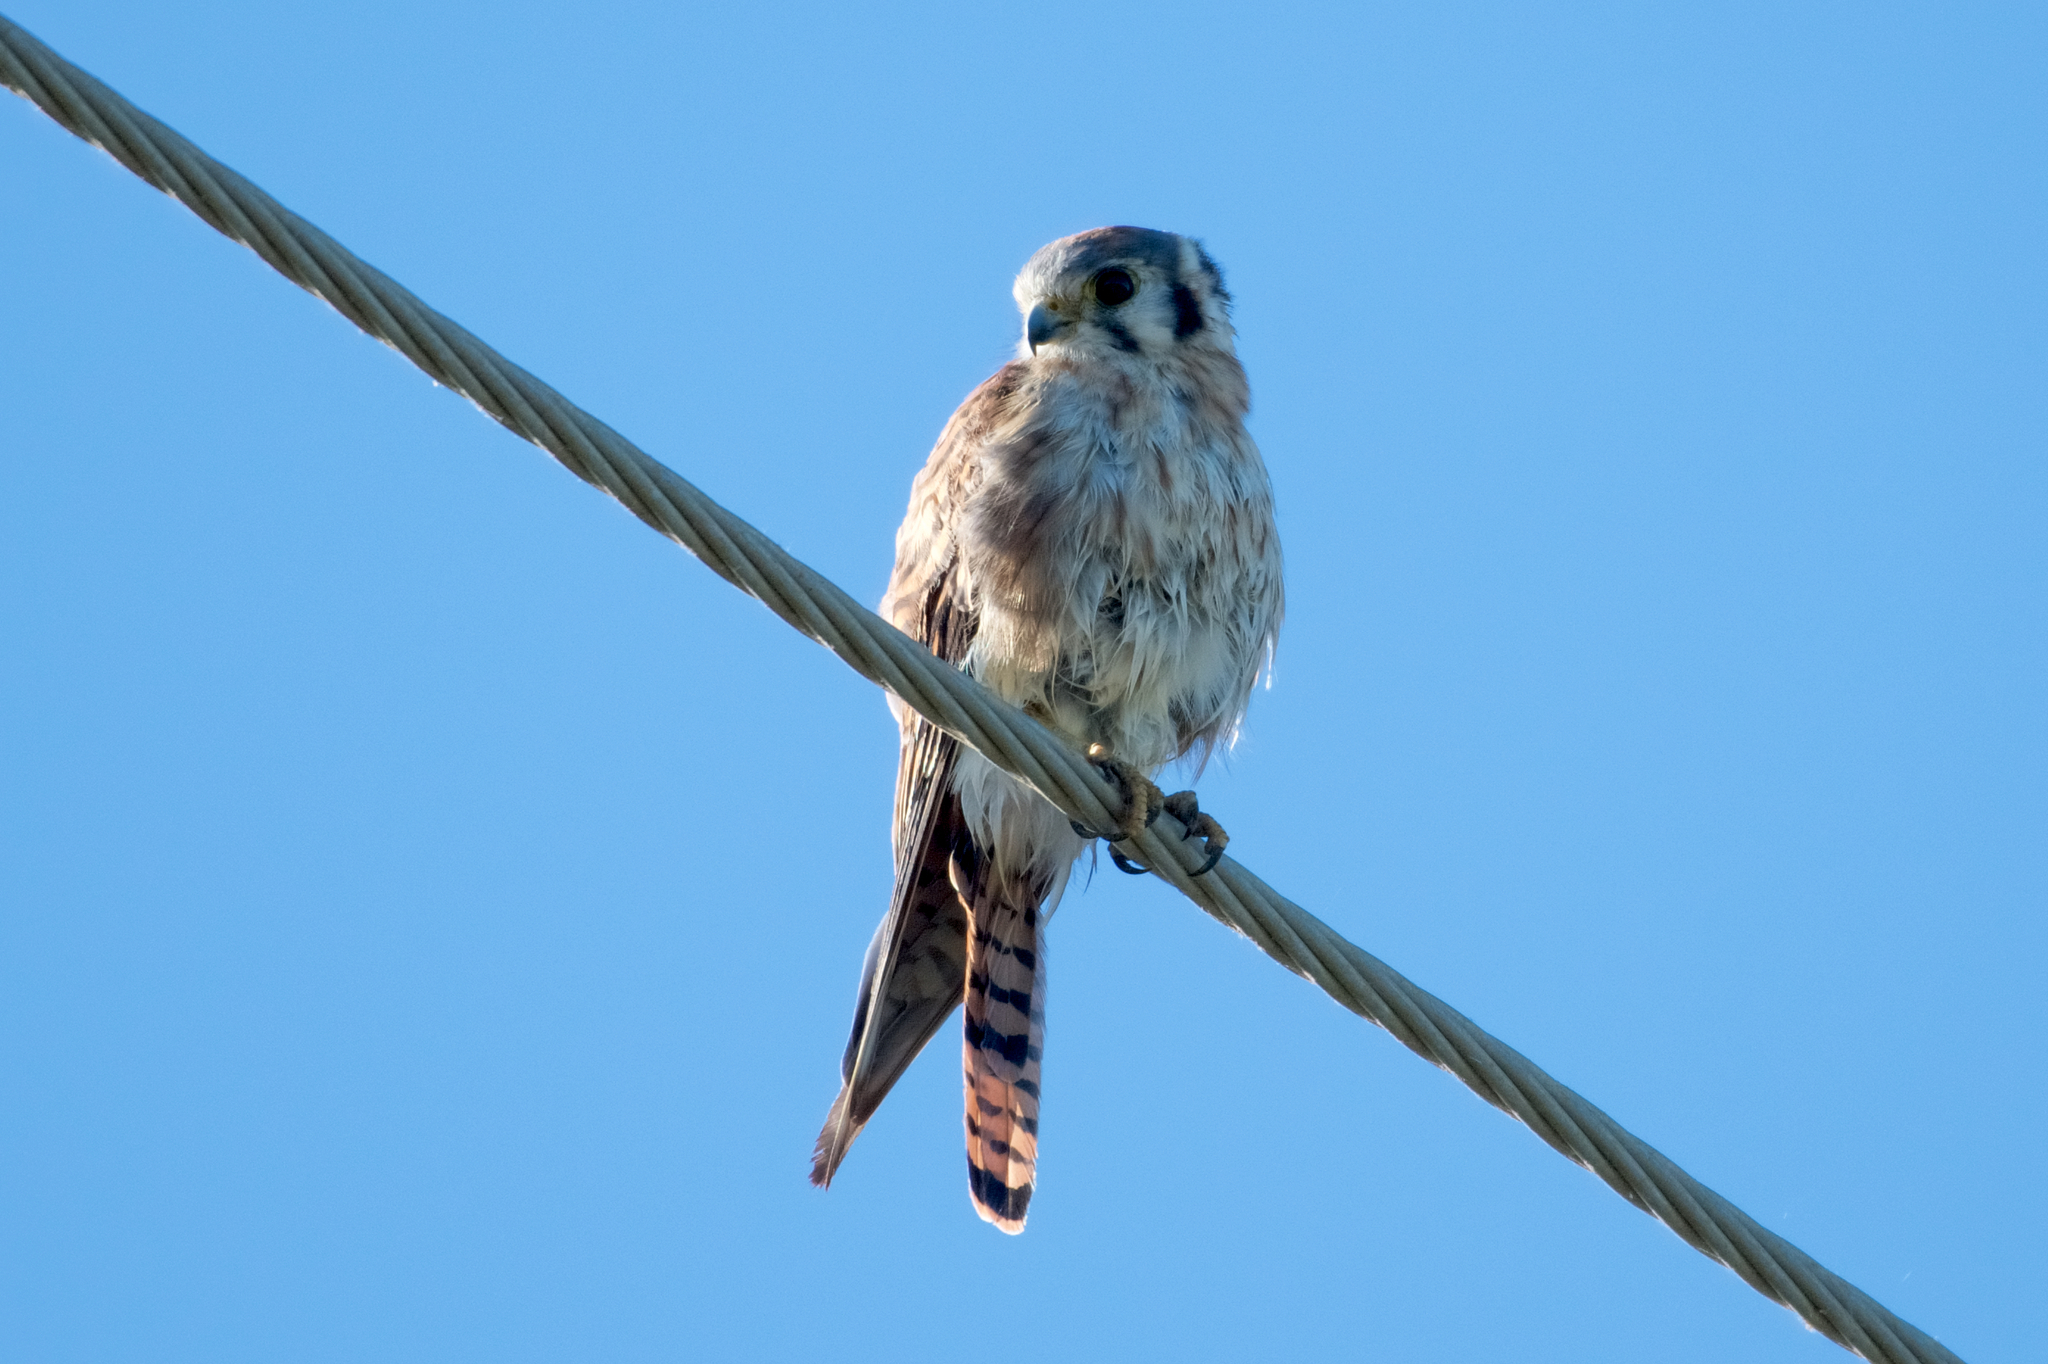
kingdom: Animalia
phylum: Chordata
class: Aves
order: Falconiformes
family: Falconidae
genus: Falco
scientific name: Falco sparverius
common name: American kestrel
